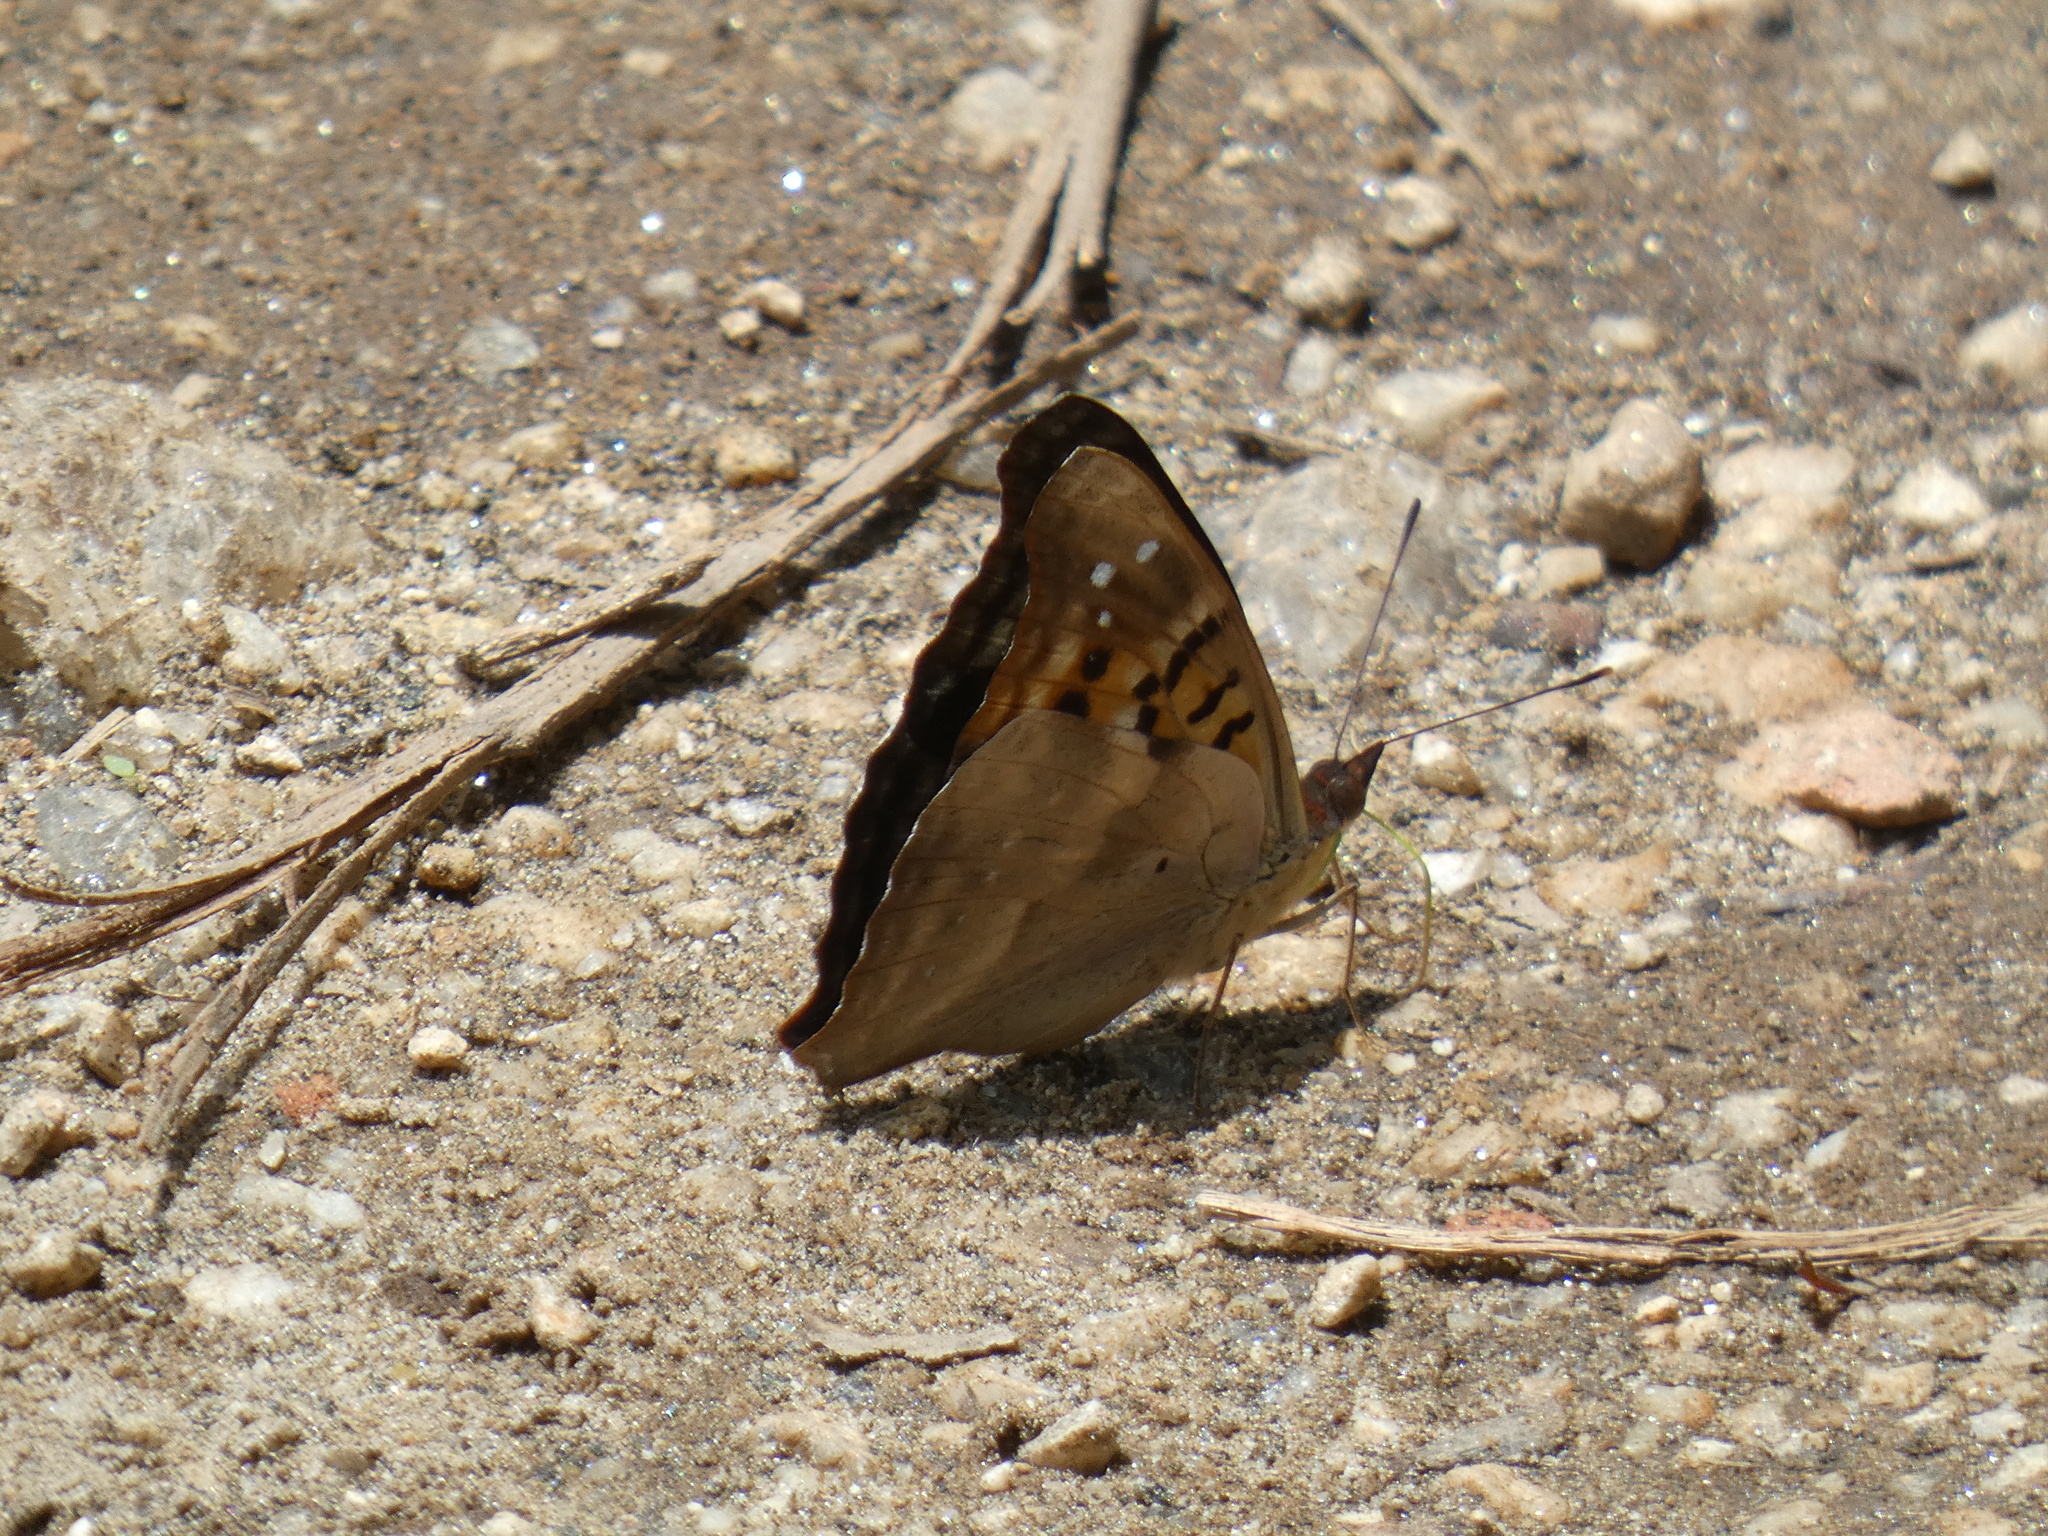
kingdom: Animalia
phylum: Arthropoda
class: Insecta
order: Lepidoptera
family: Nymphalidae
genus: Doxocopa
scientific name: Doxocopa laurentia
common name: Turquoise emperor
